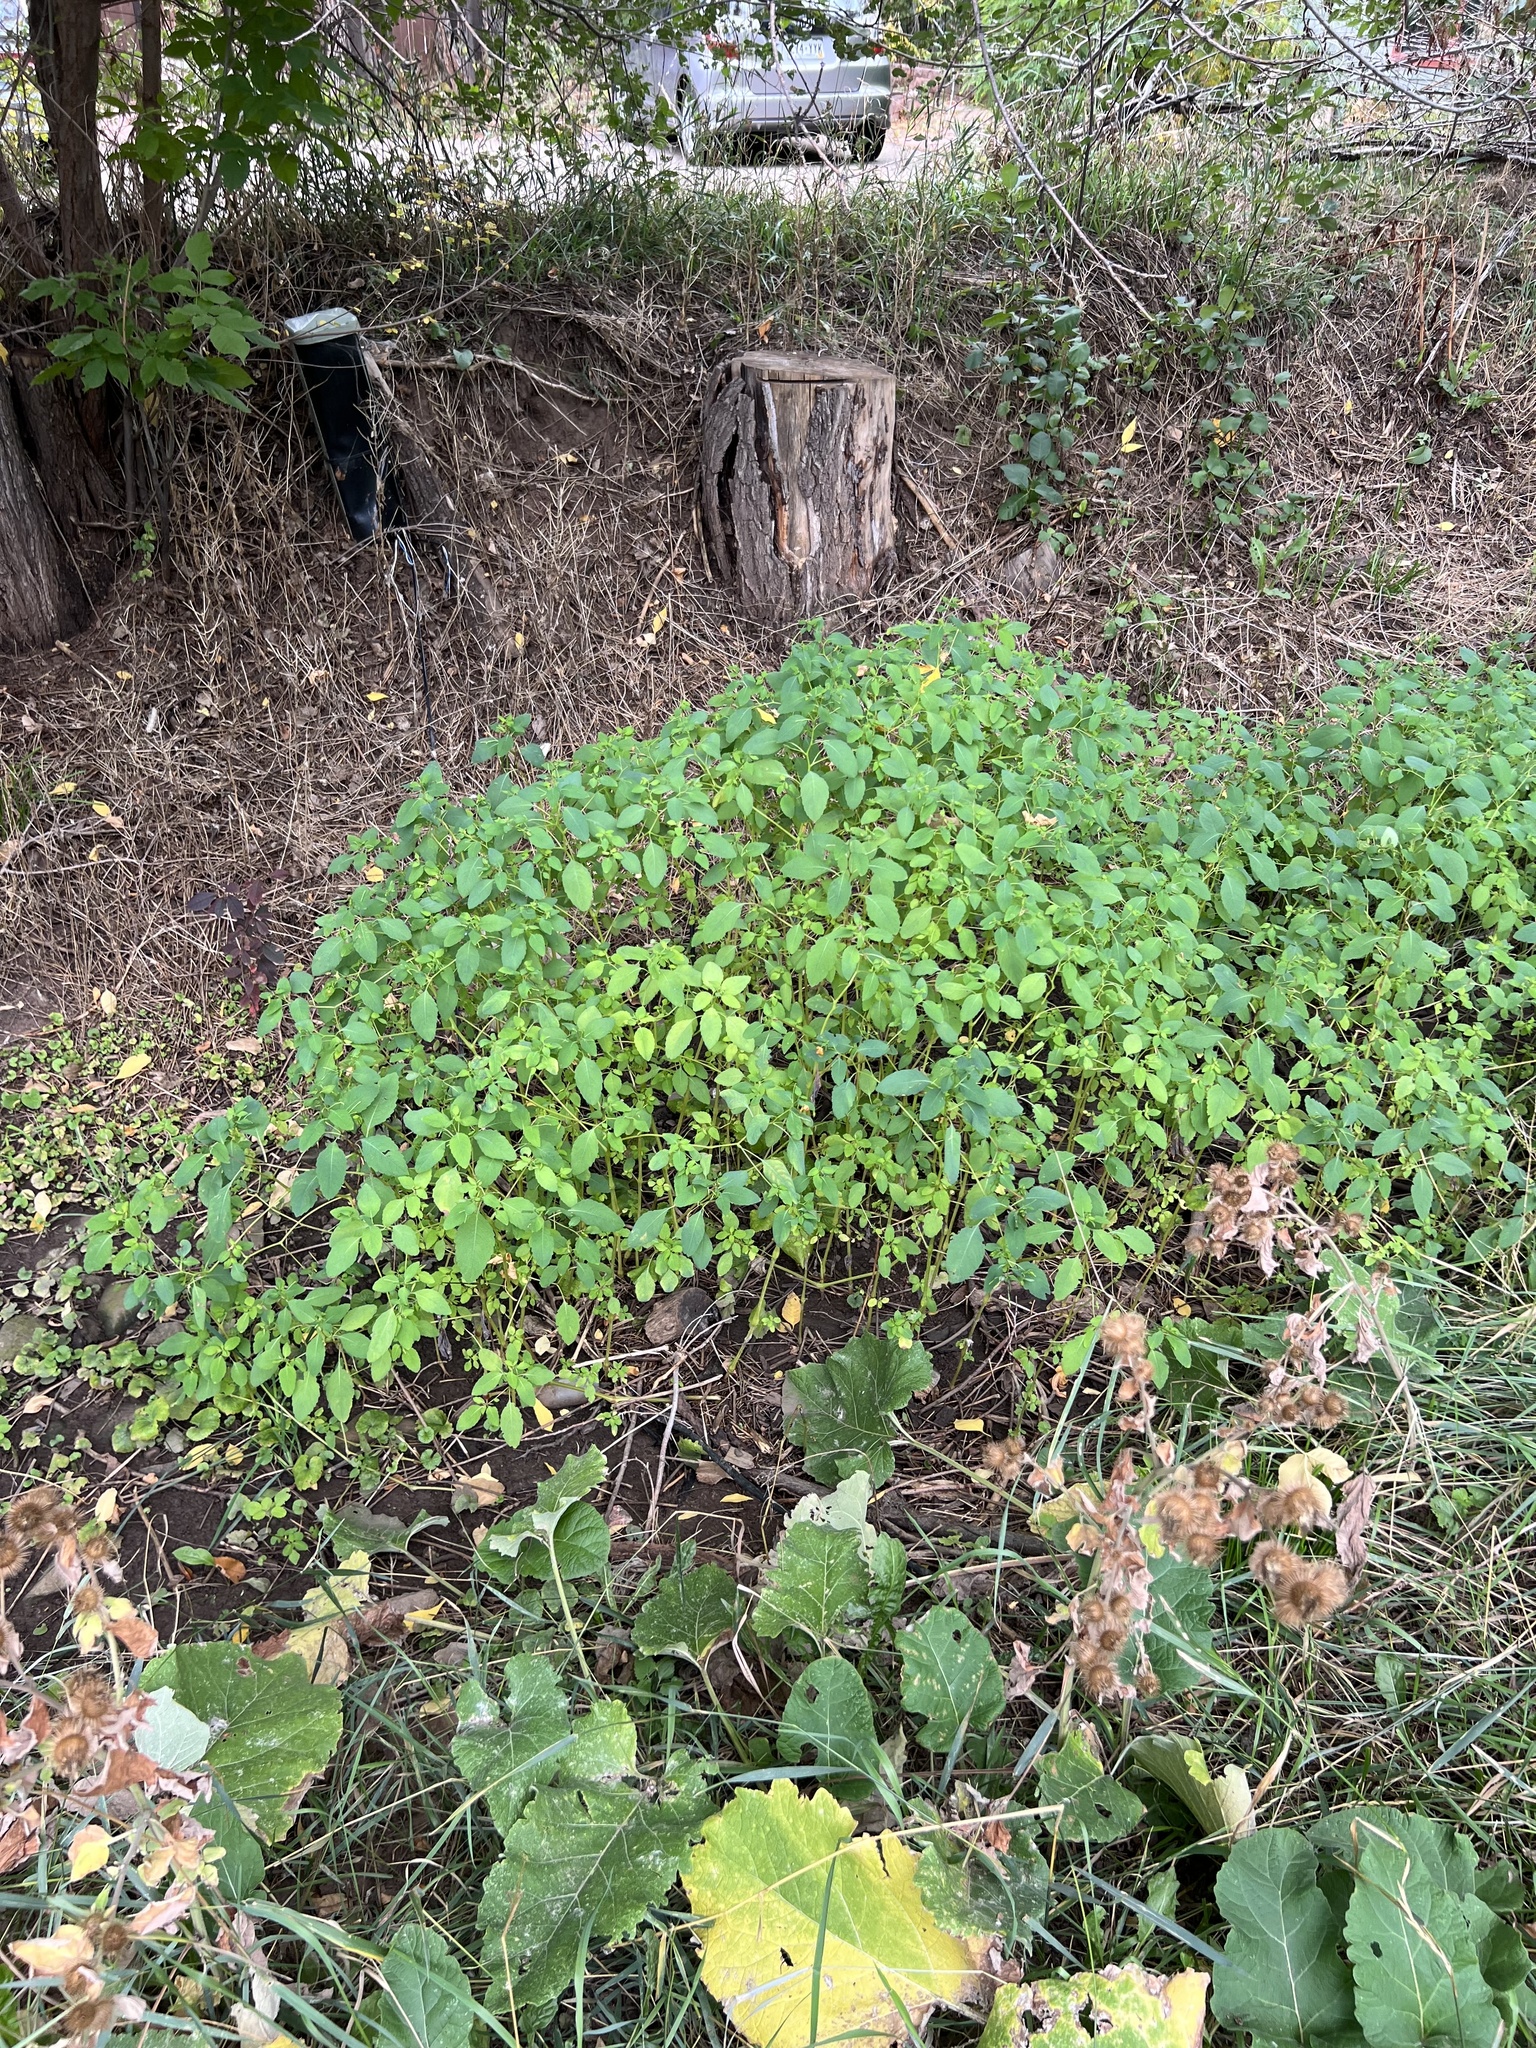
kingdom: Plantae
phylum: Tracheophyta
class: Magnoliopsida
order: Ericales
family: Balsaminaceae
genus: Impatiens
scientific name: Impatiens capensis
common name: Orange balsam
